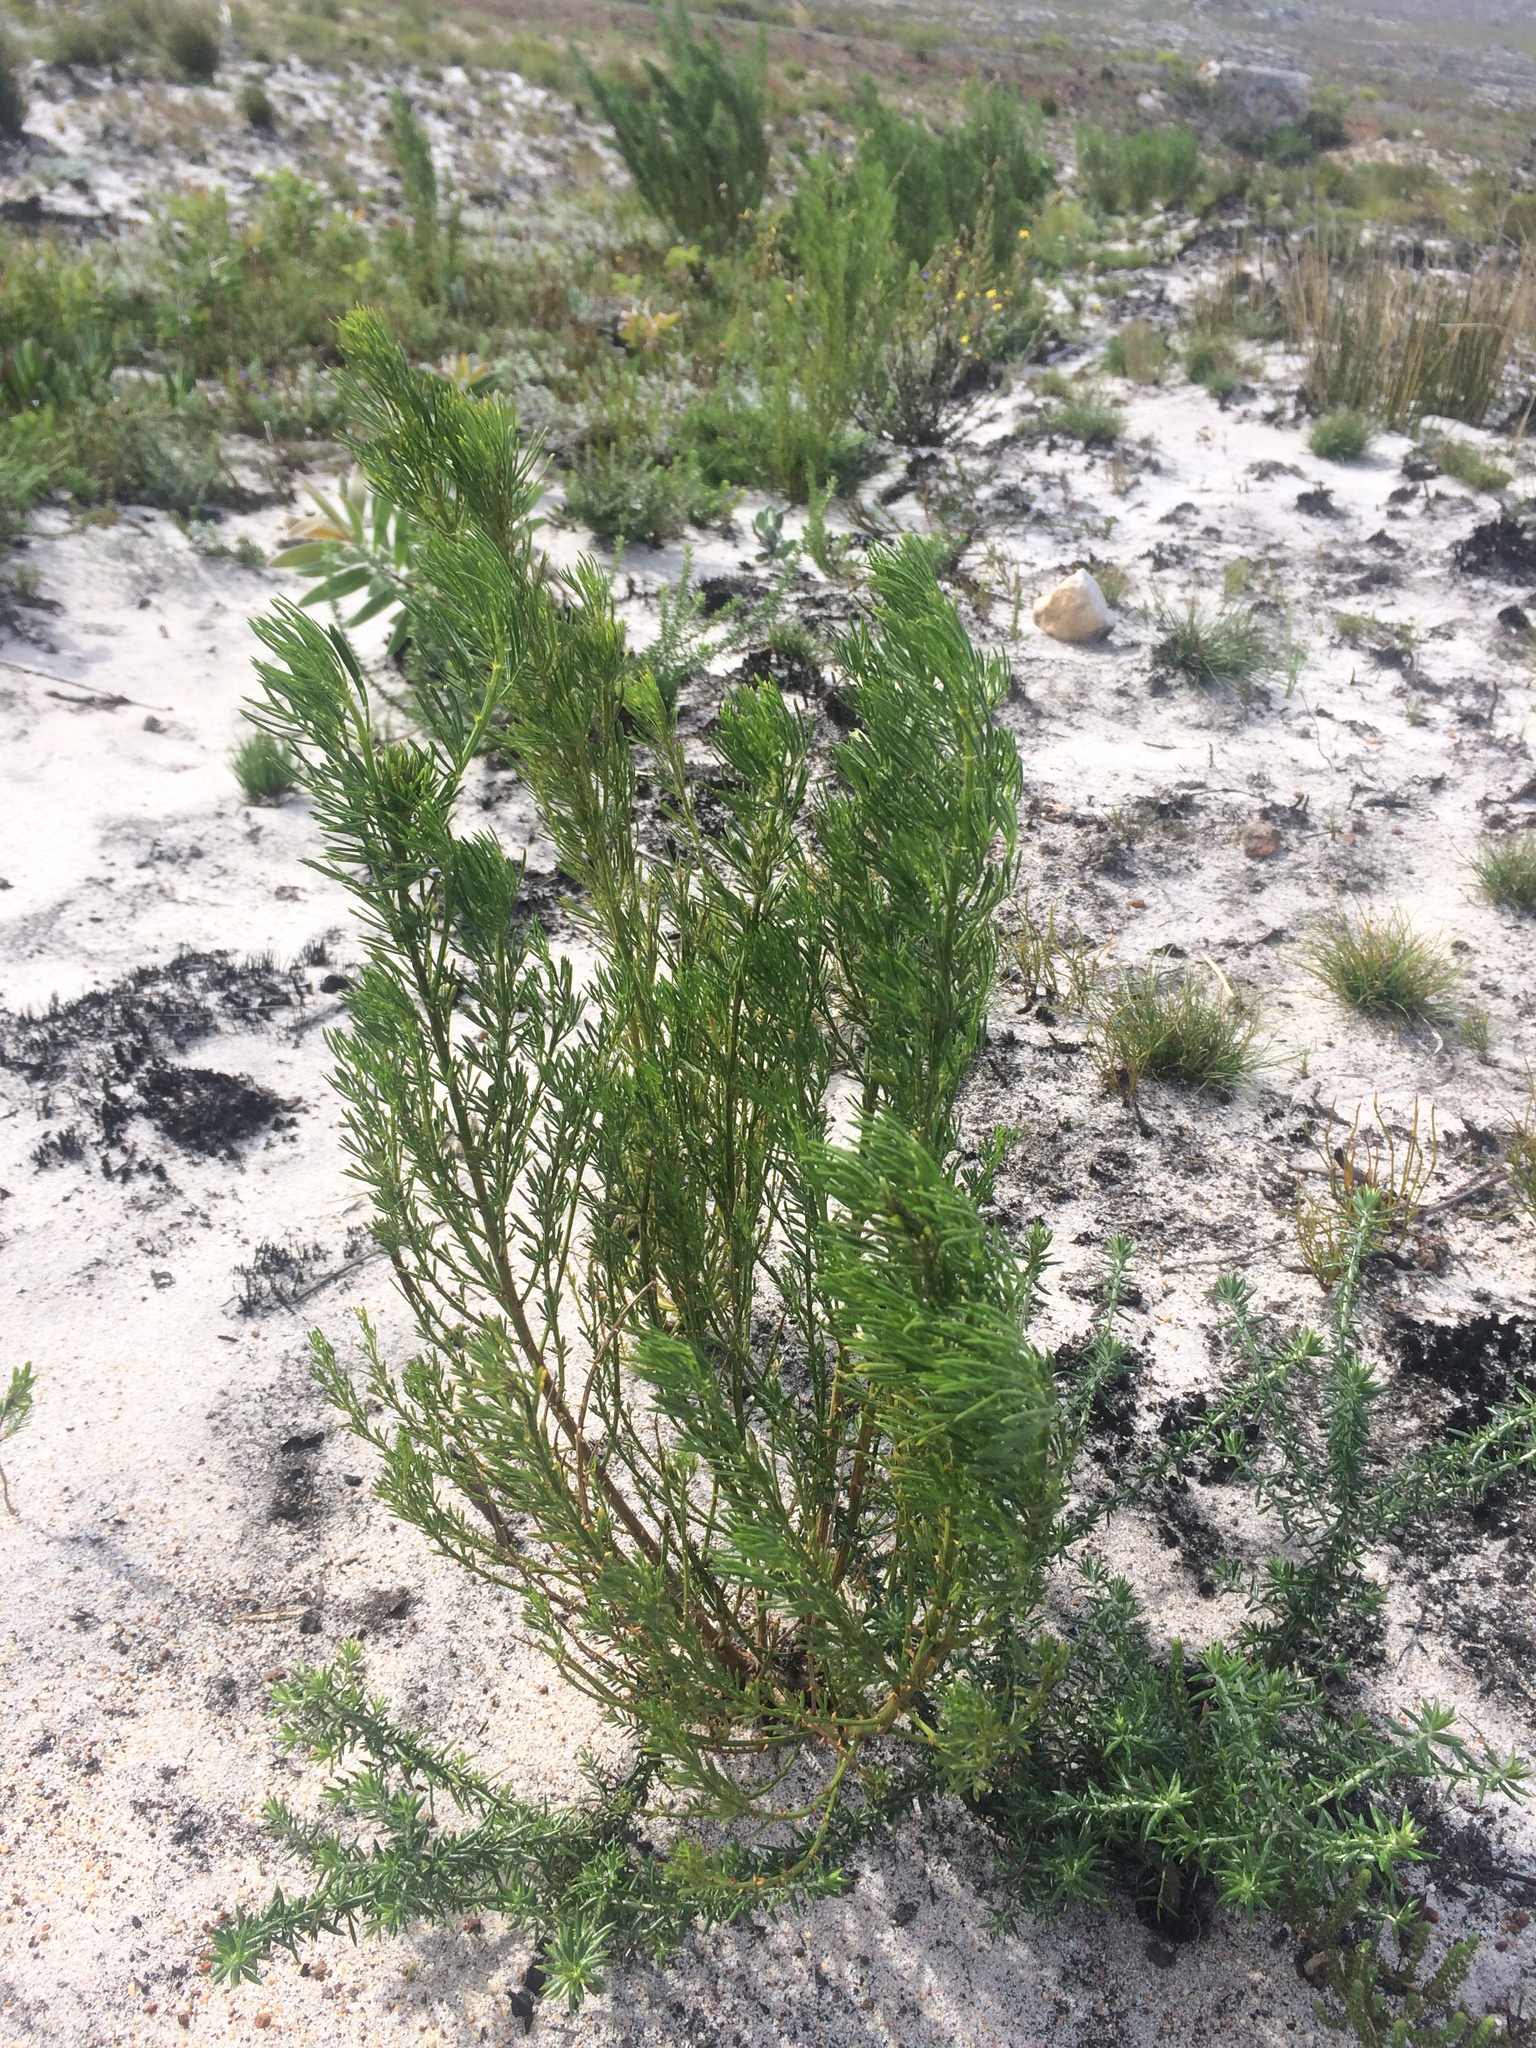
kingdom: Plantae
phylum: Tracheophyta
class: Magnoliopsida
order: Fabales
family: Fabaceae
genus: Psoralea
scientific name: Psoralea pinnata
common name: African scurfpea
